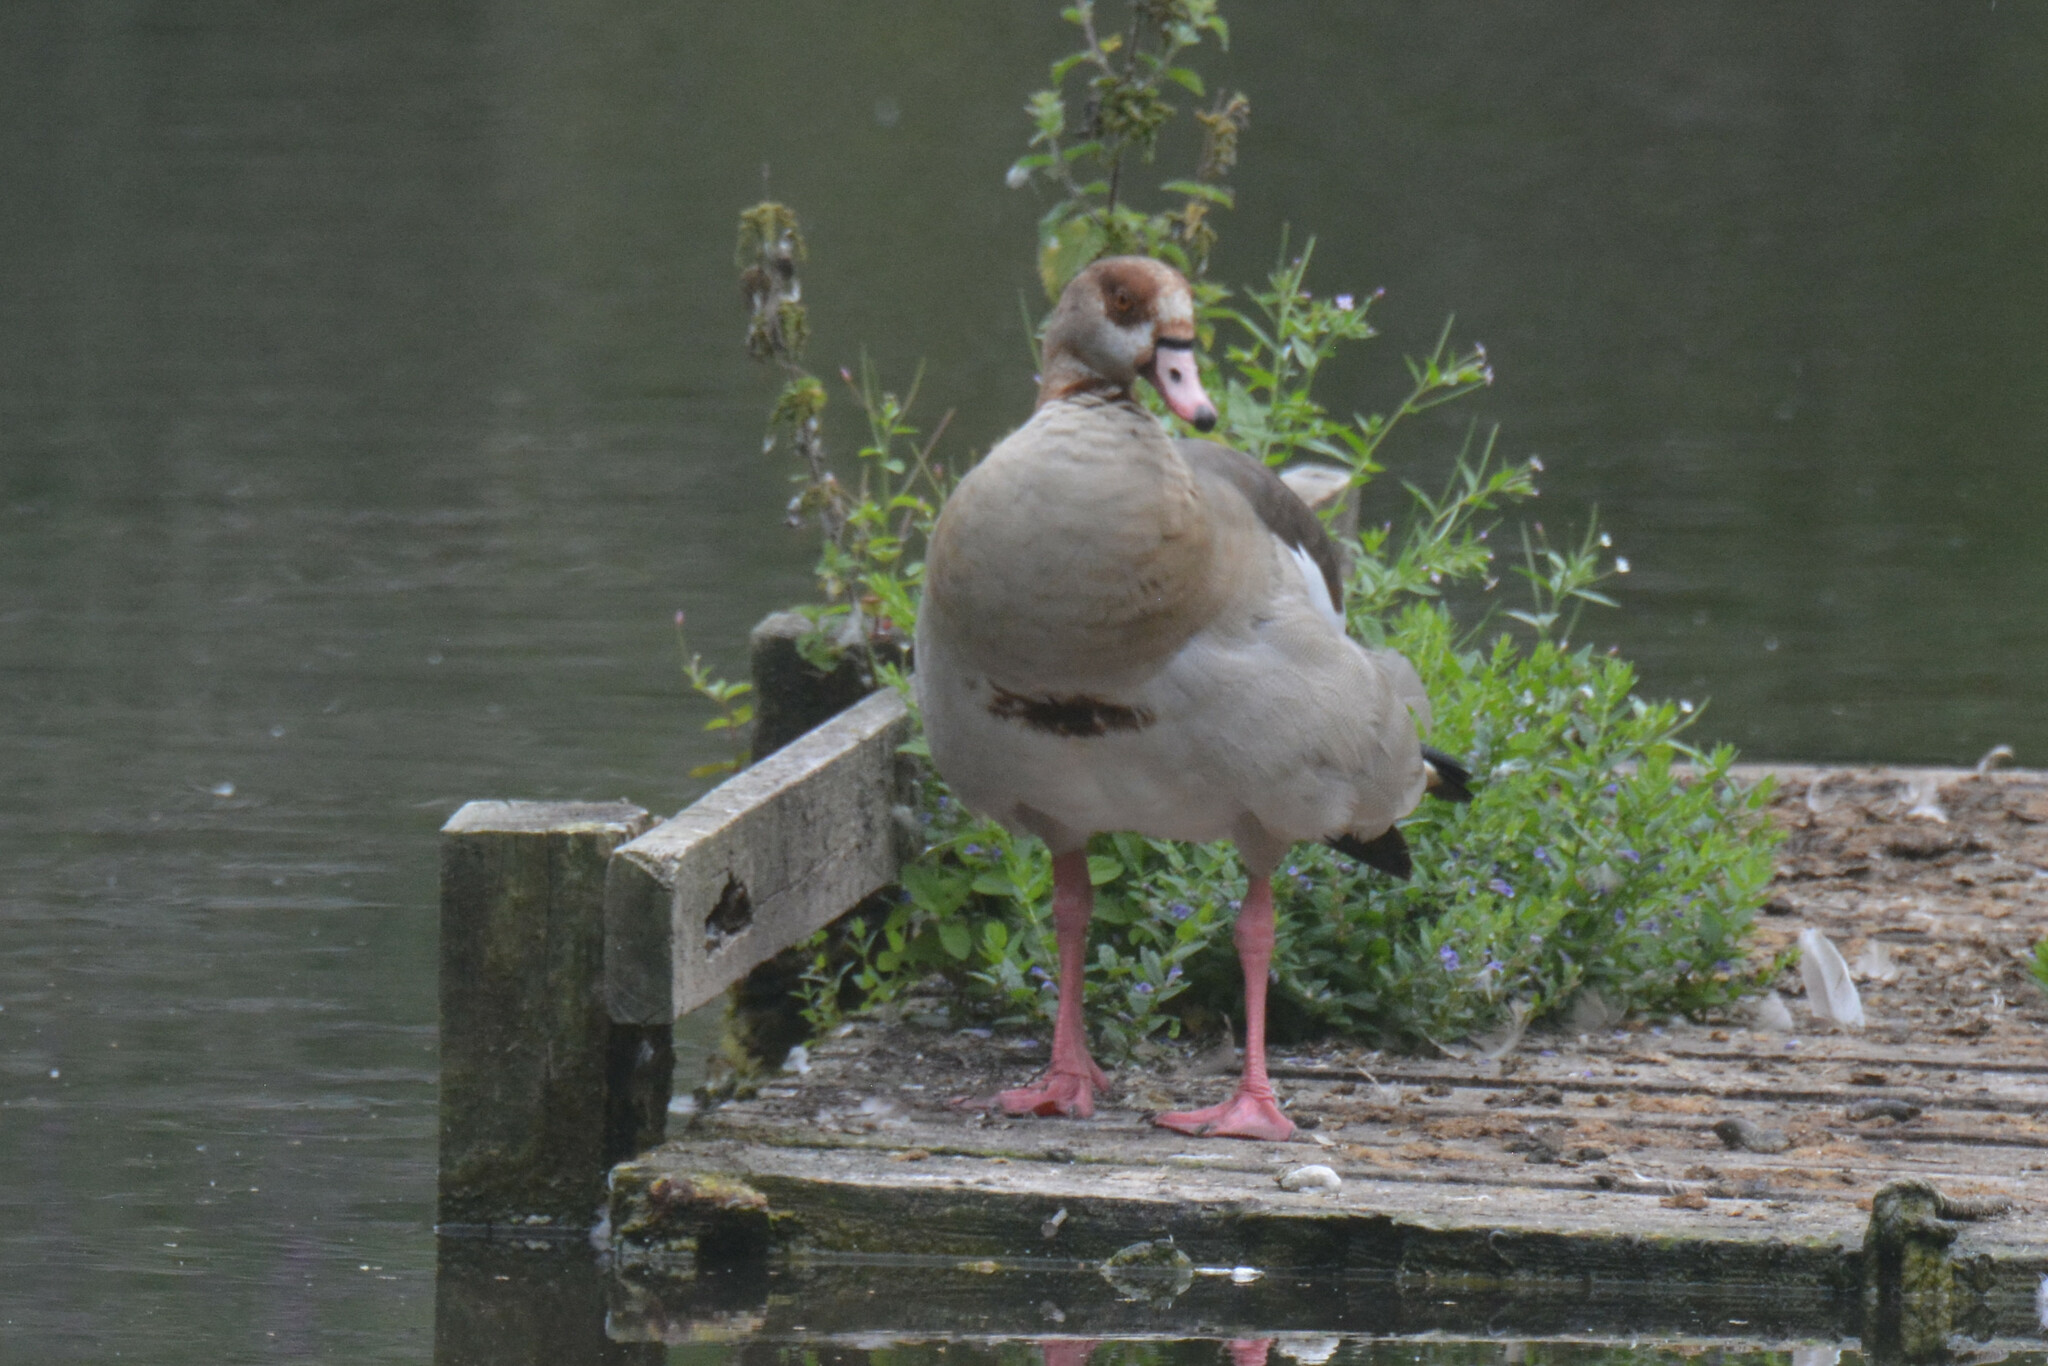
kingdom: Animalia
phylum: Chordata
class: Aves
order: Anseriformes
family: Anatidae
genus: Alopochen
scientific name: Alopochen aegyptiaca
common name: Egyptian goose
